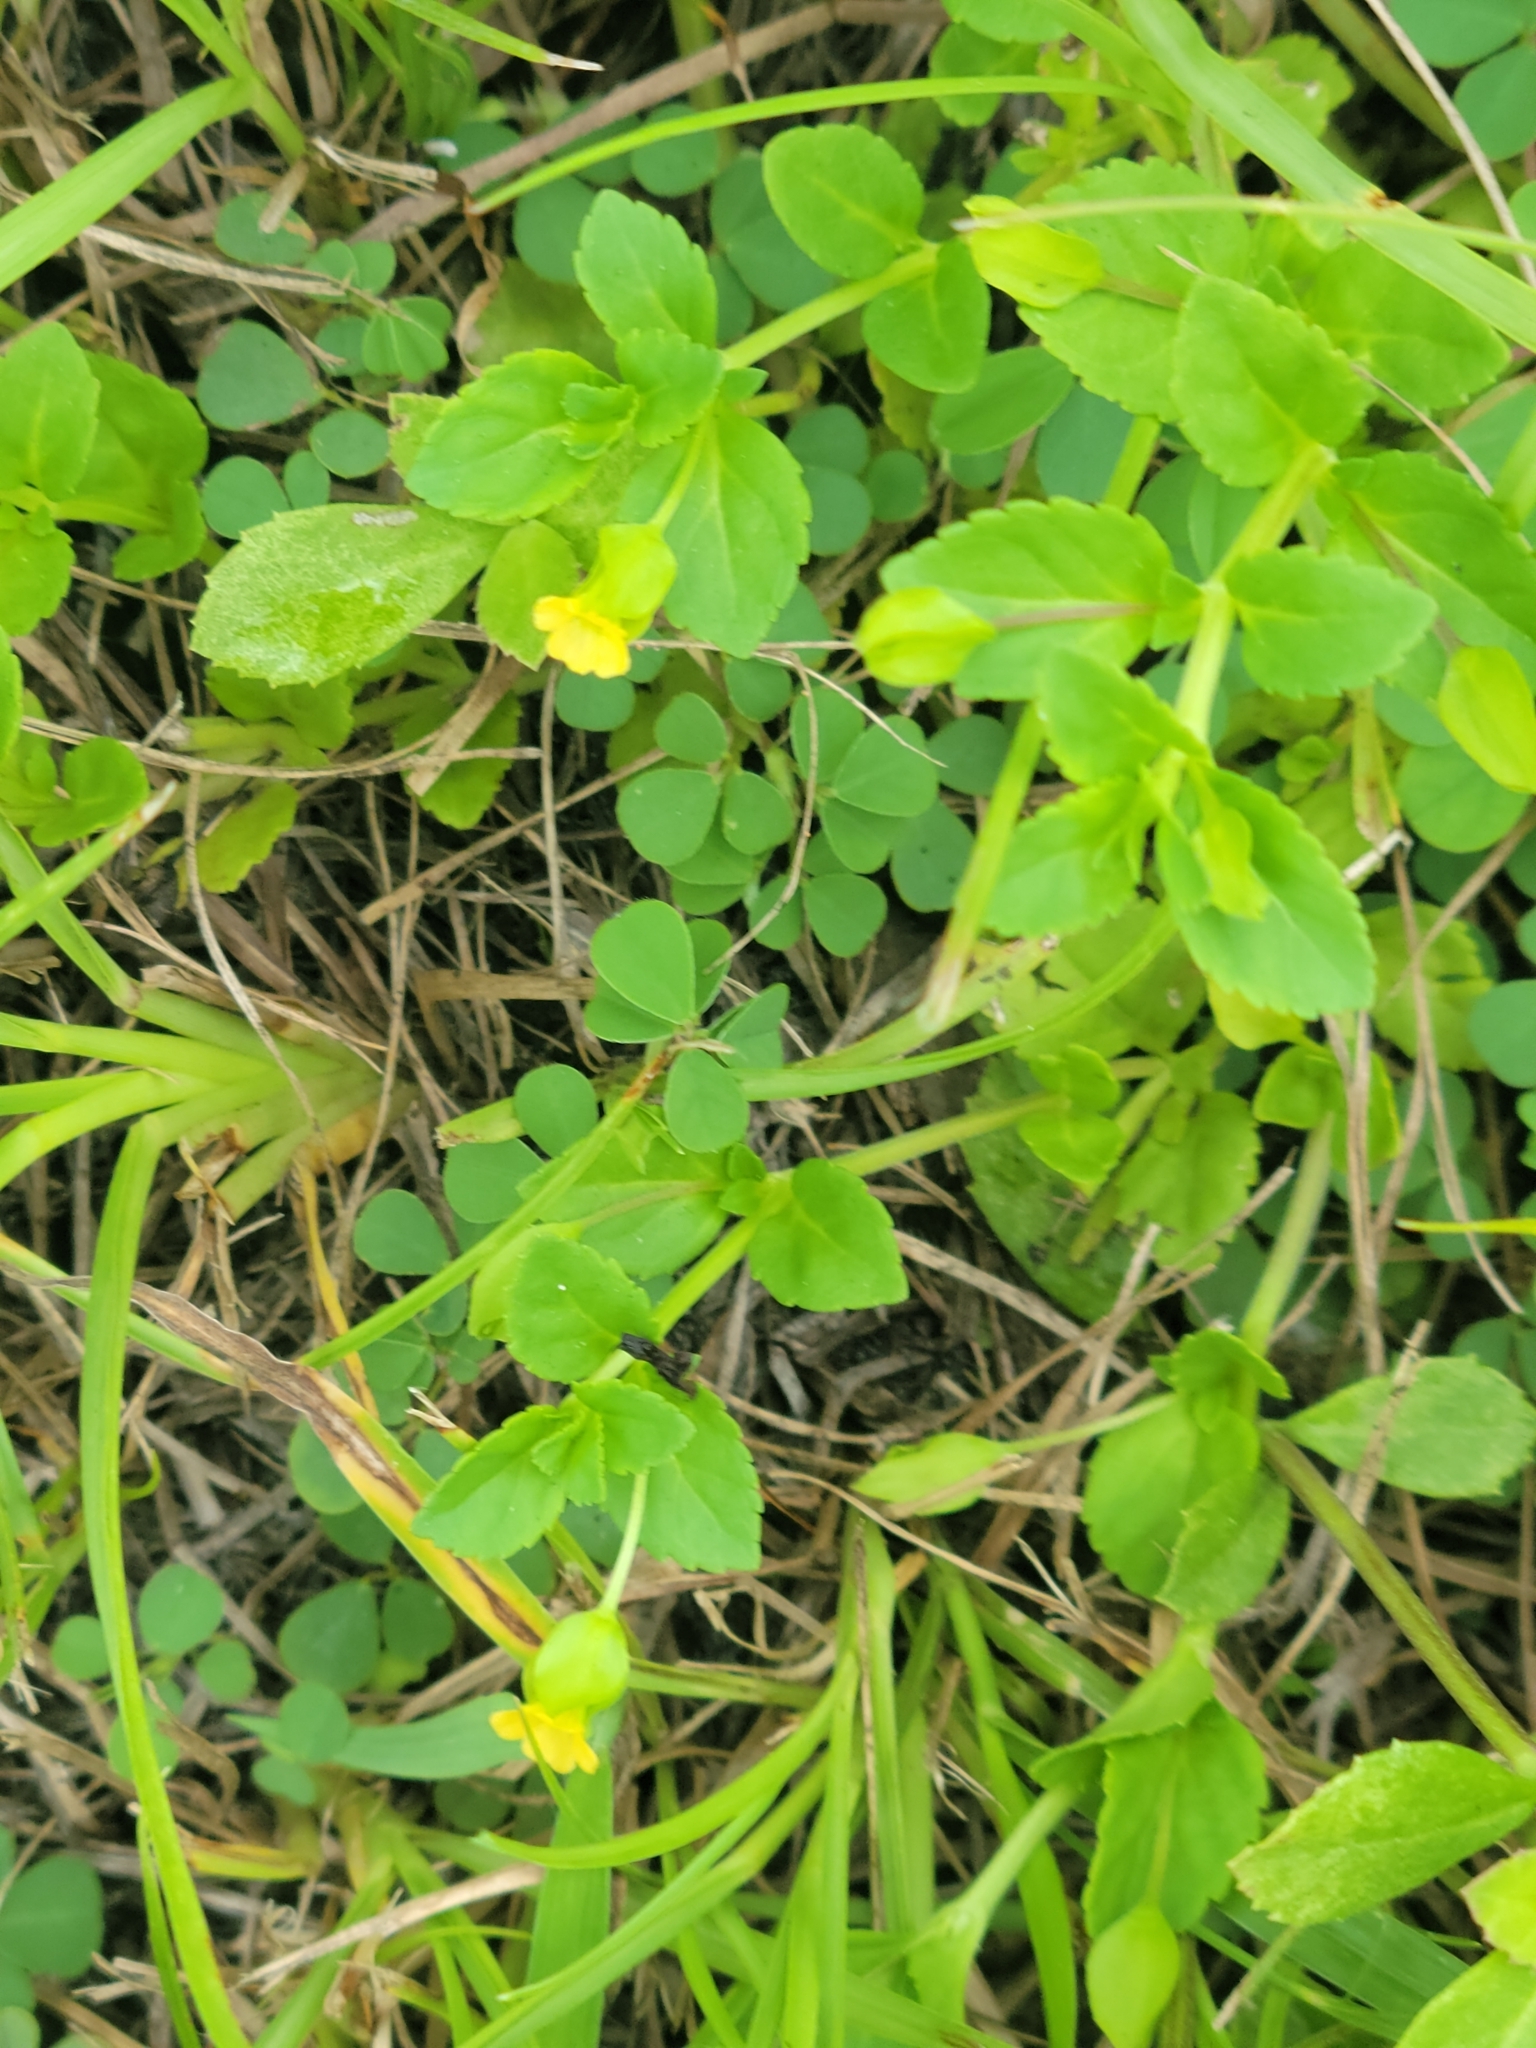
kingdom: Plantae
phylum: Tracheophyta
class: Magnoliopsida
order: Lamiales
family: Plantaginaceae
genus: Mecardonia
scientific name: Mecardonia procumbens
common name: Baby jump-up
